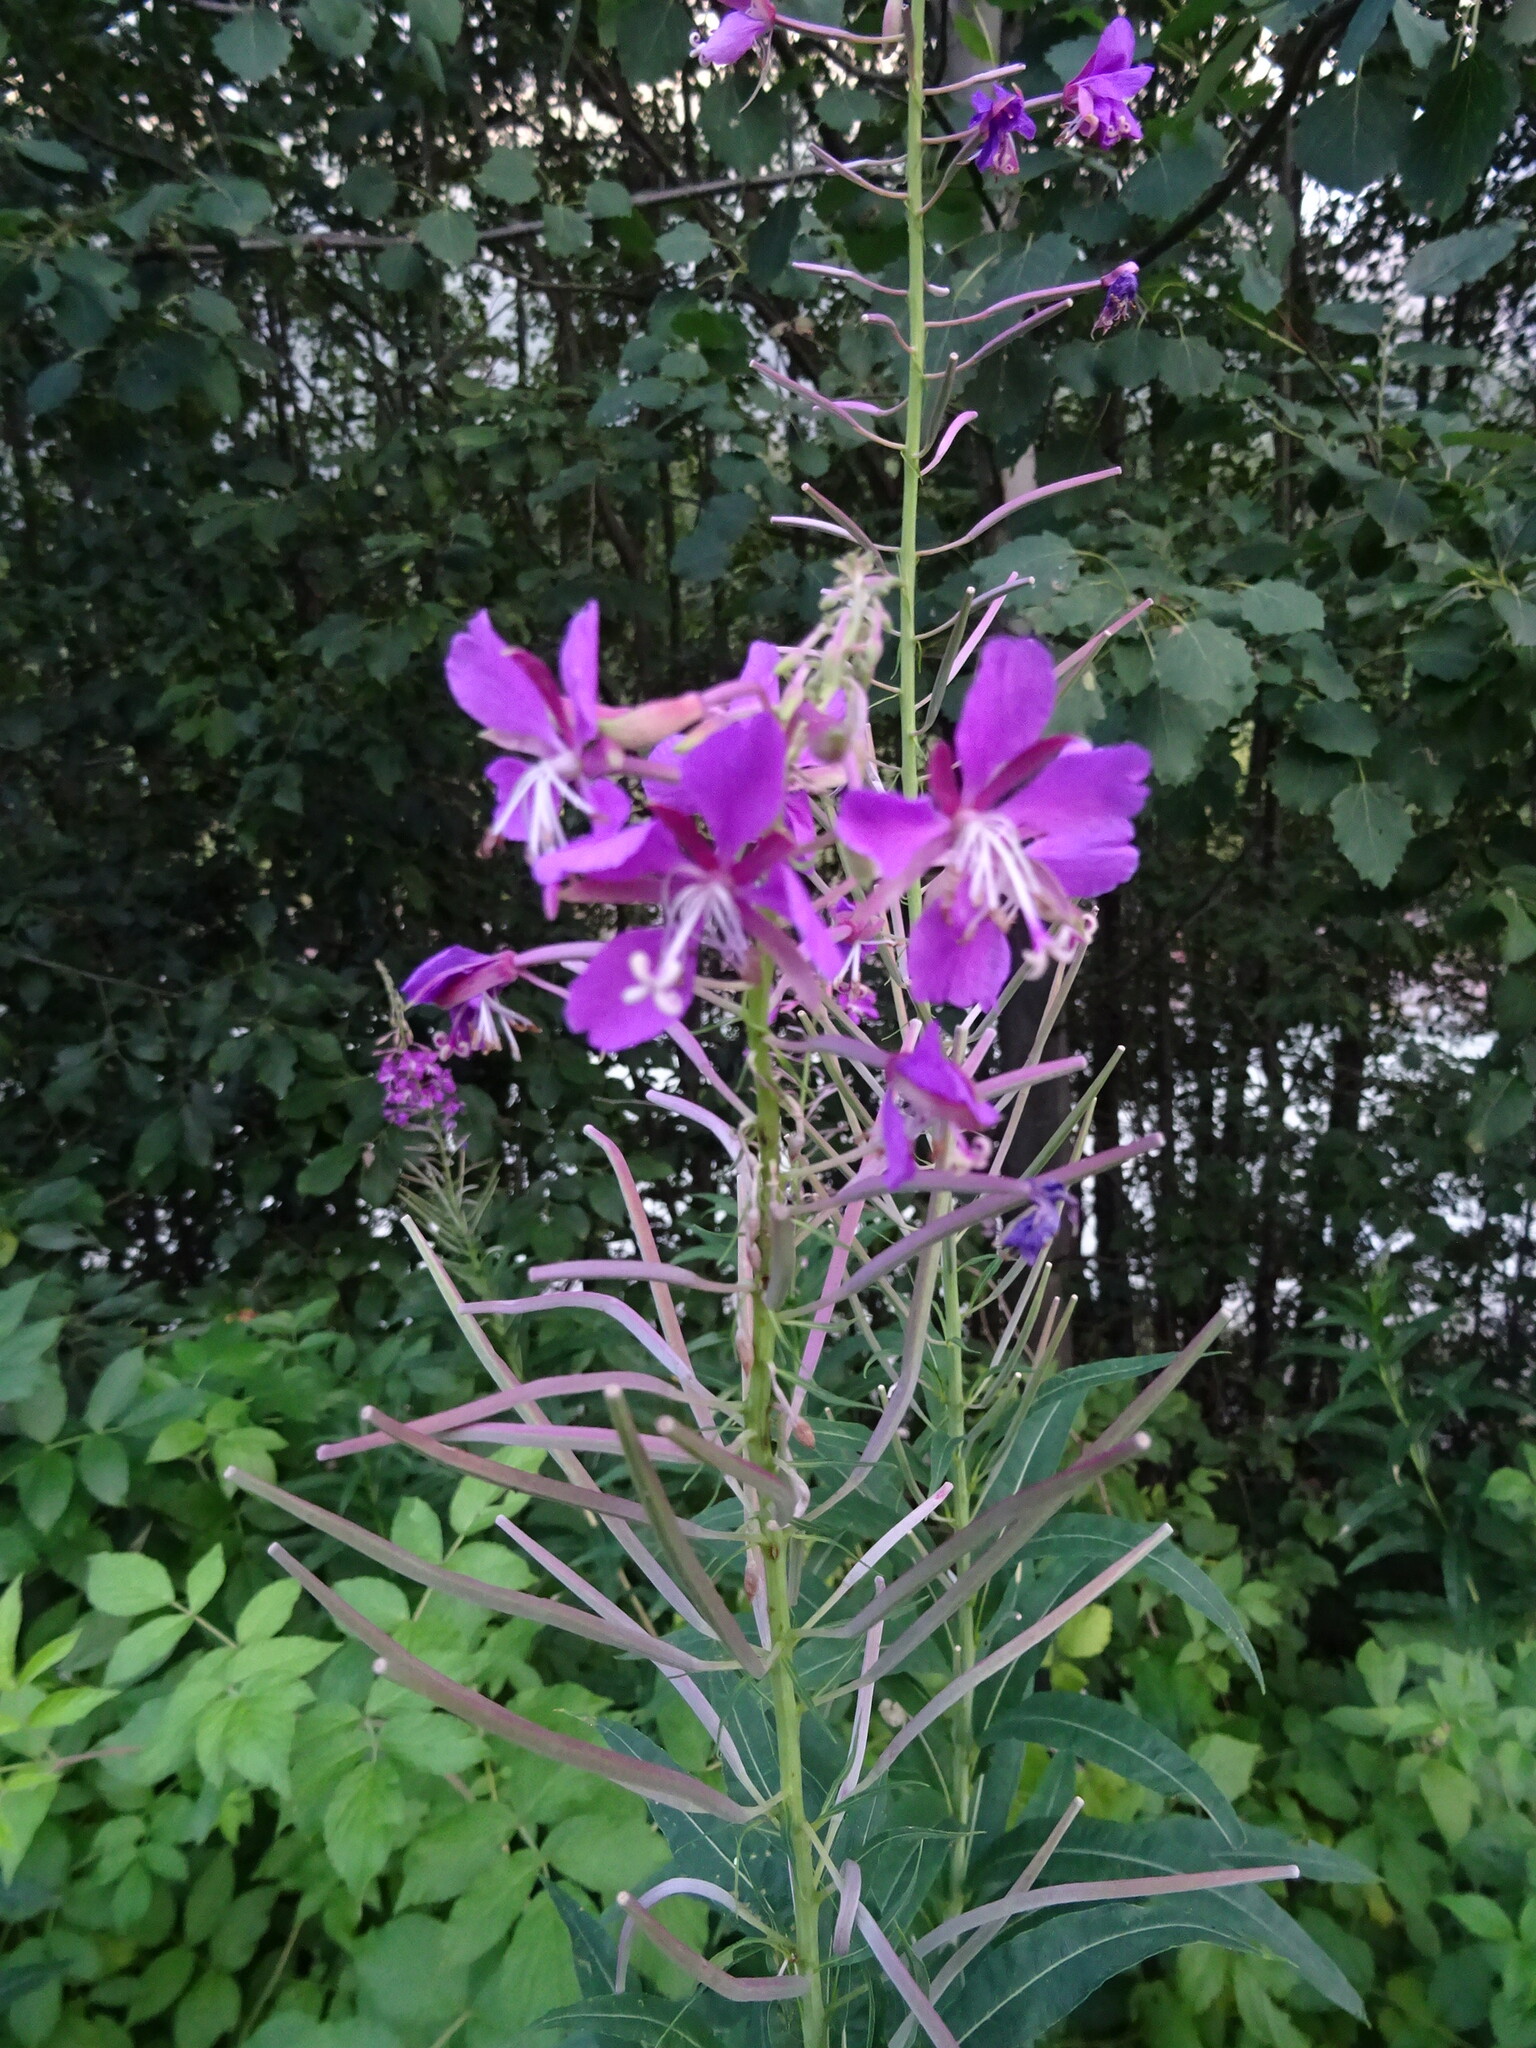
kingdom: Plantae
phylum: Tracheophyta
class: Magnoliopsida
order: Myrtales
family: Onagraceae
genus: Chamaenerion
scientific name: Chamaenerion angustifolium
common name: Fireweed
